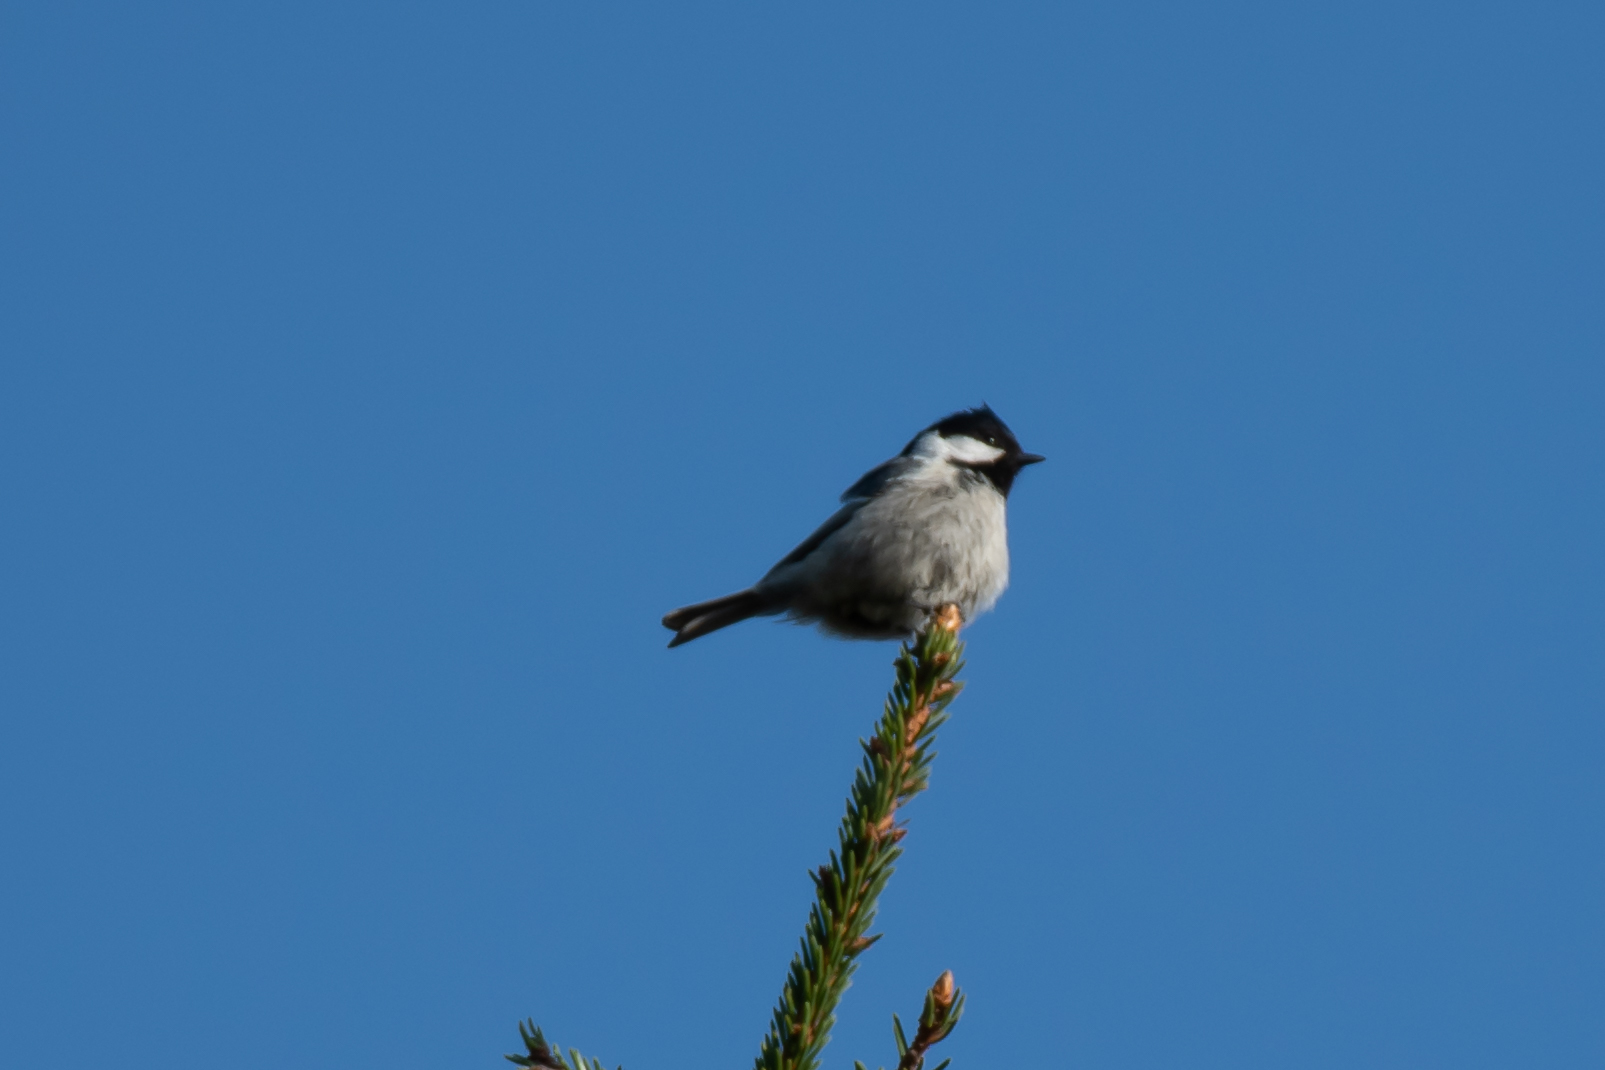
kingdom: Animalia
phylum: Chordata
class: Aves
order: Passeriformes
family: Paridae
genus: Periparus
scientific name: Periparus ater
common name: Coal tit
